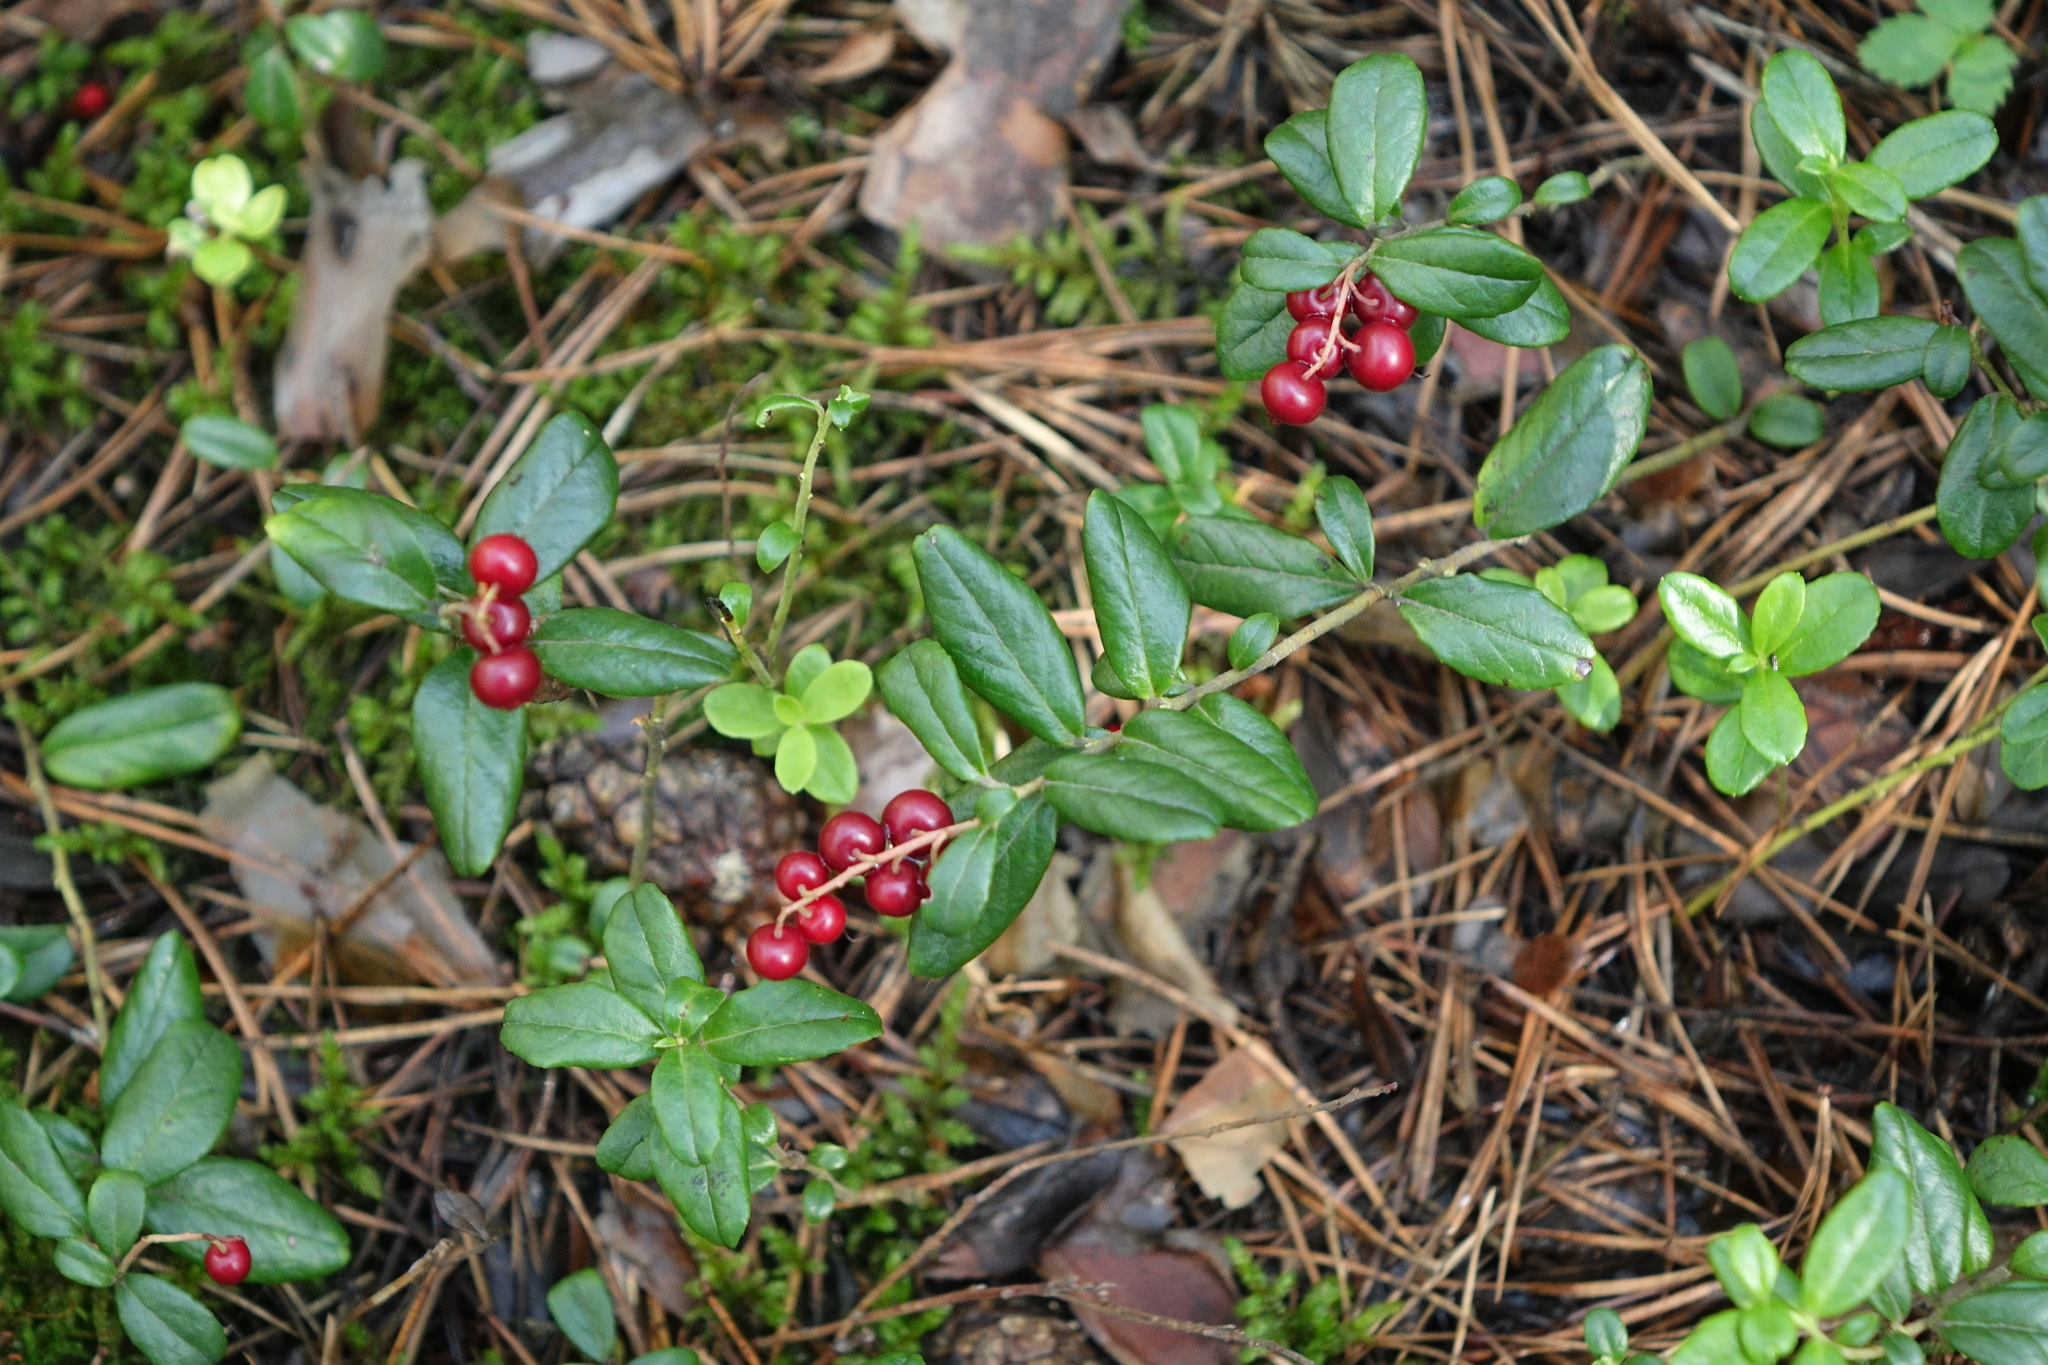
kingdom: Plantae
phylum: Tracheophyta
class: Magnoliopsida
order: Ericales
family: Ericaceae
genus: Vaccinium
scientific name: Vaccinium vitis-idaea
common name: Cowberry
